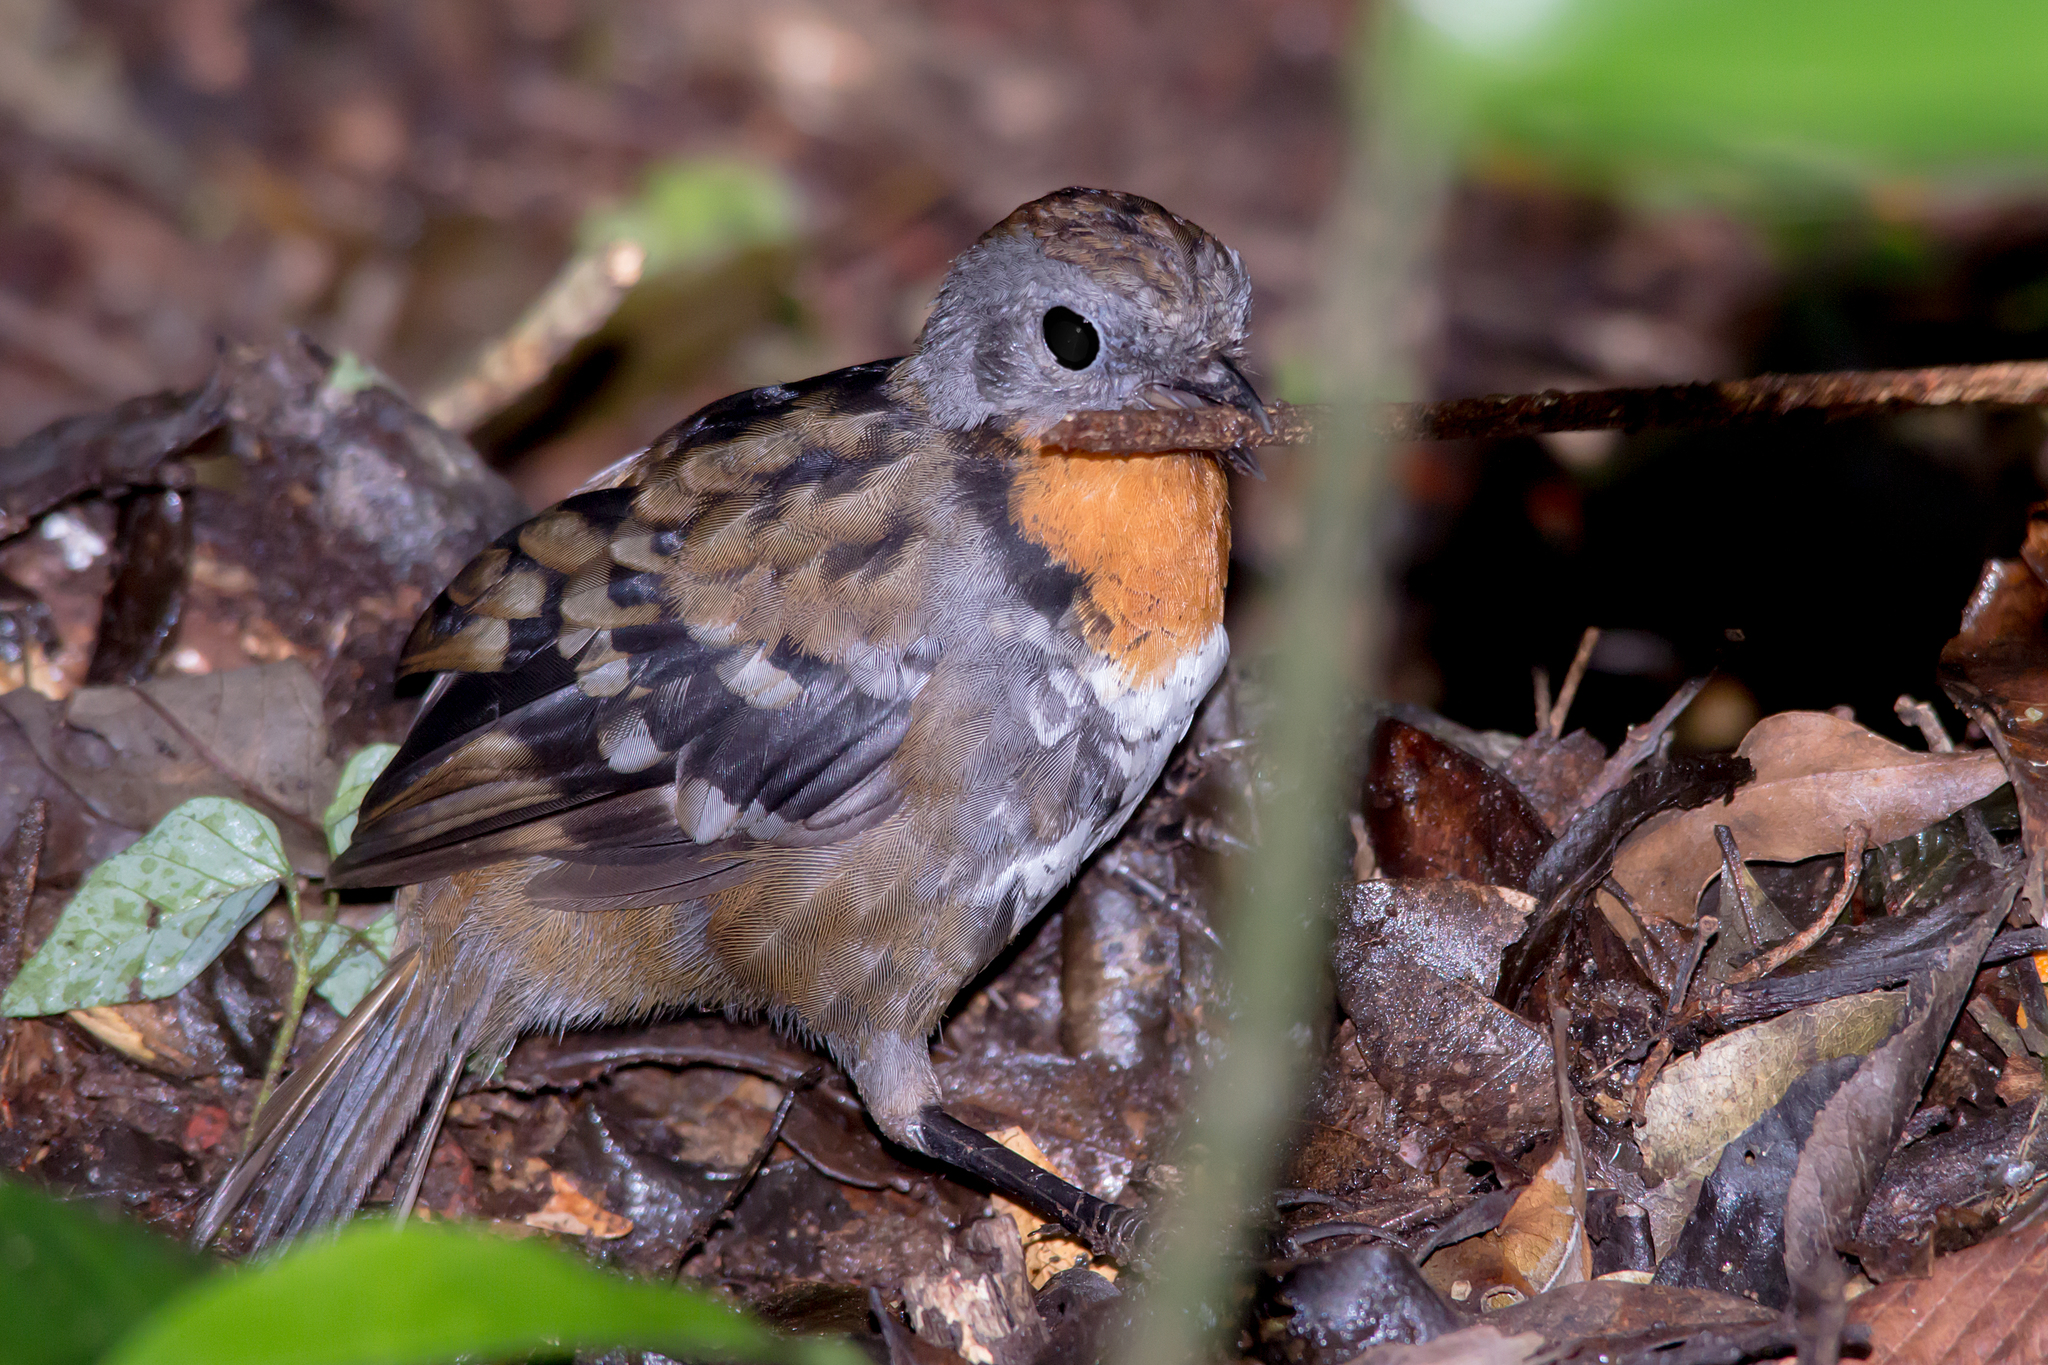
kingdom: Animalia
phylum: Chordata
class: Aves
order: Passeriformes
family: Orthonychidae
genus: Orthonyx
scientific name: Orthonyx temminckii
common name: Australian logrunner
